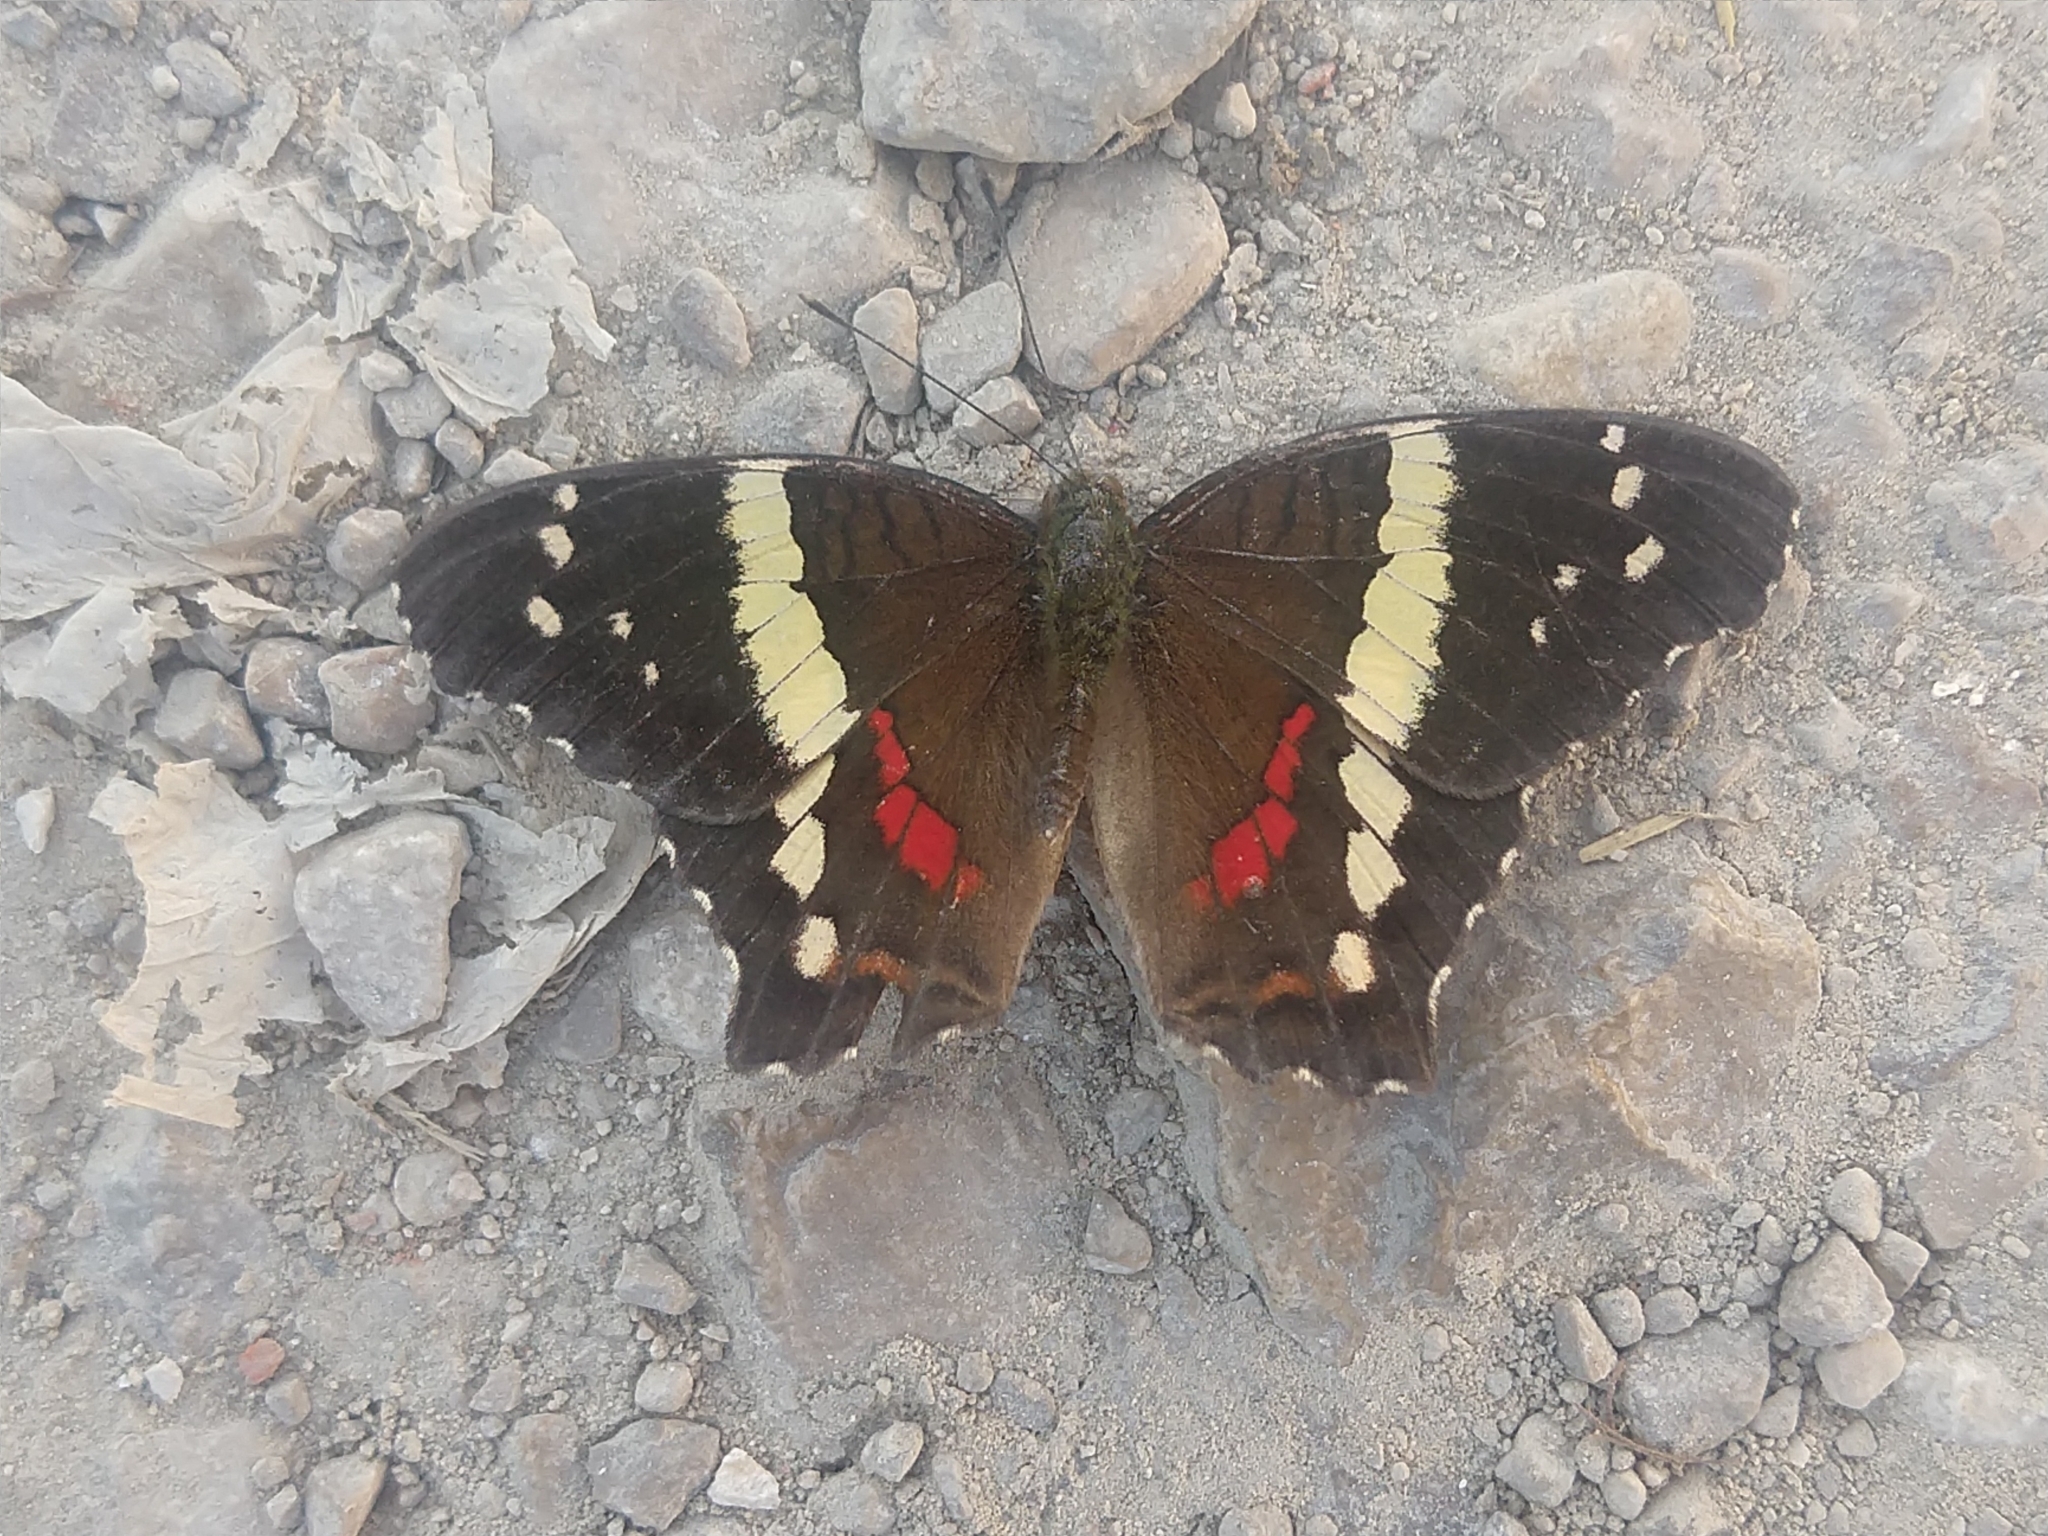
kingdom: Animalia
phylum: Arthropoda
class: Insecta
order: Lepidoptera
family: Nymphalidae
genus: Anartia
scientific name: Anartia fatima
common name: Banded peacock
